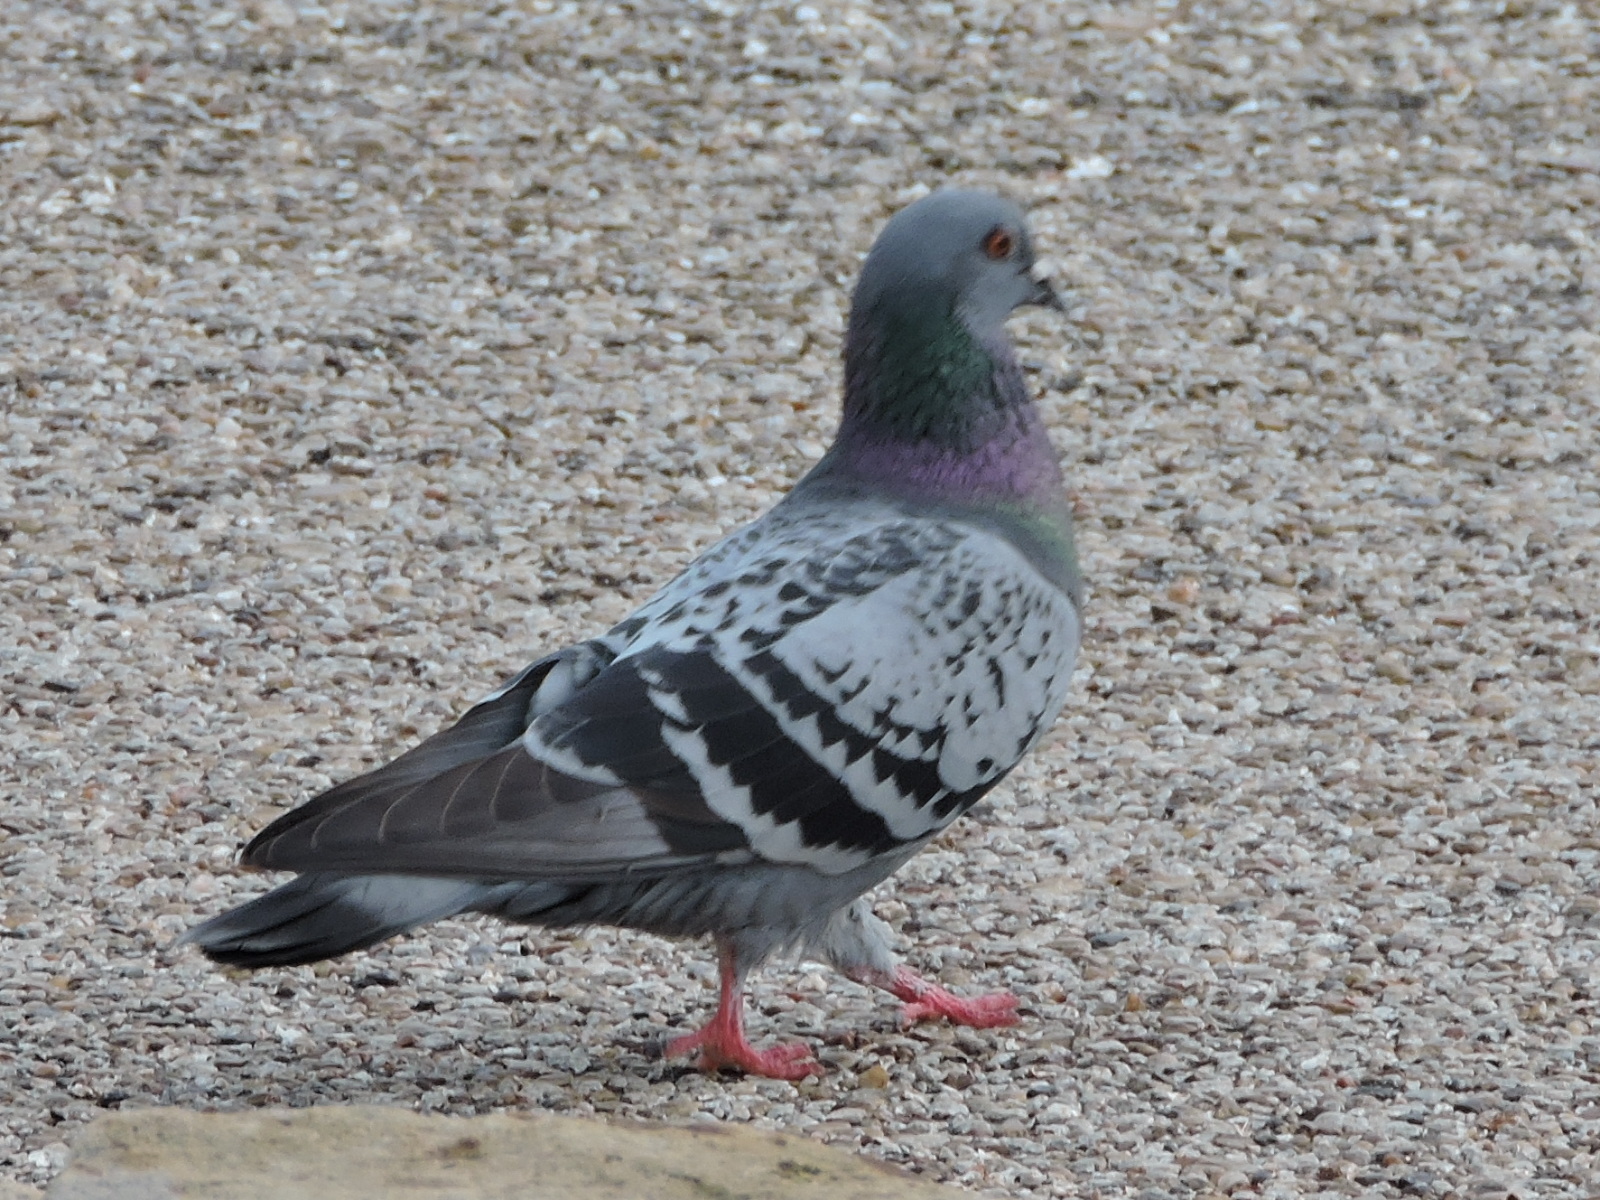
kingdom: Animalia
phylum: Chordata
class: Aves
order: Columbiformes
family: Columbidae
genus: Columba
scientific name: Columba livia
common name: Rock pigeon
